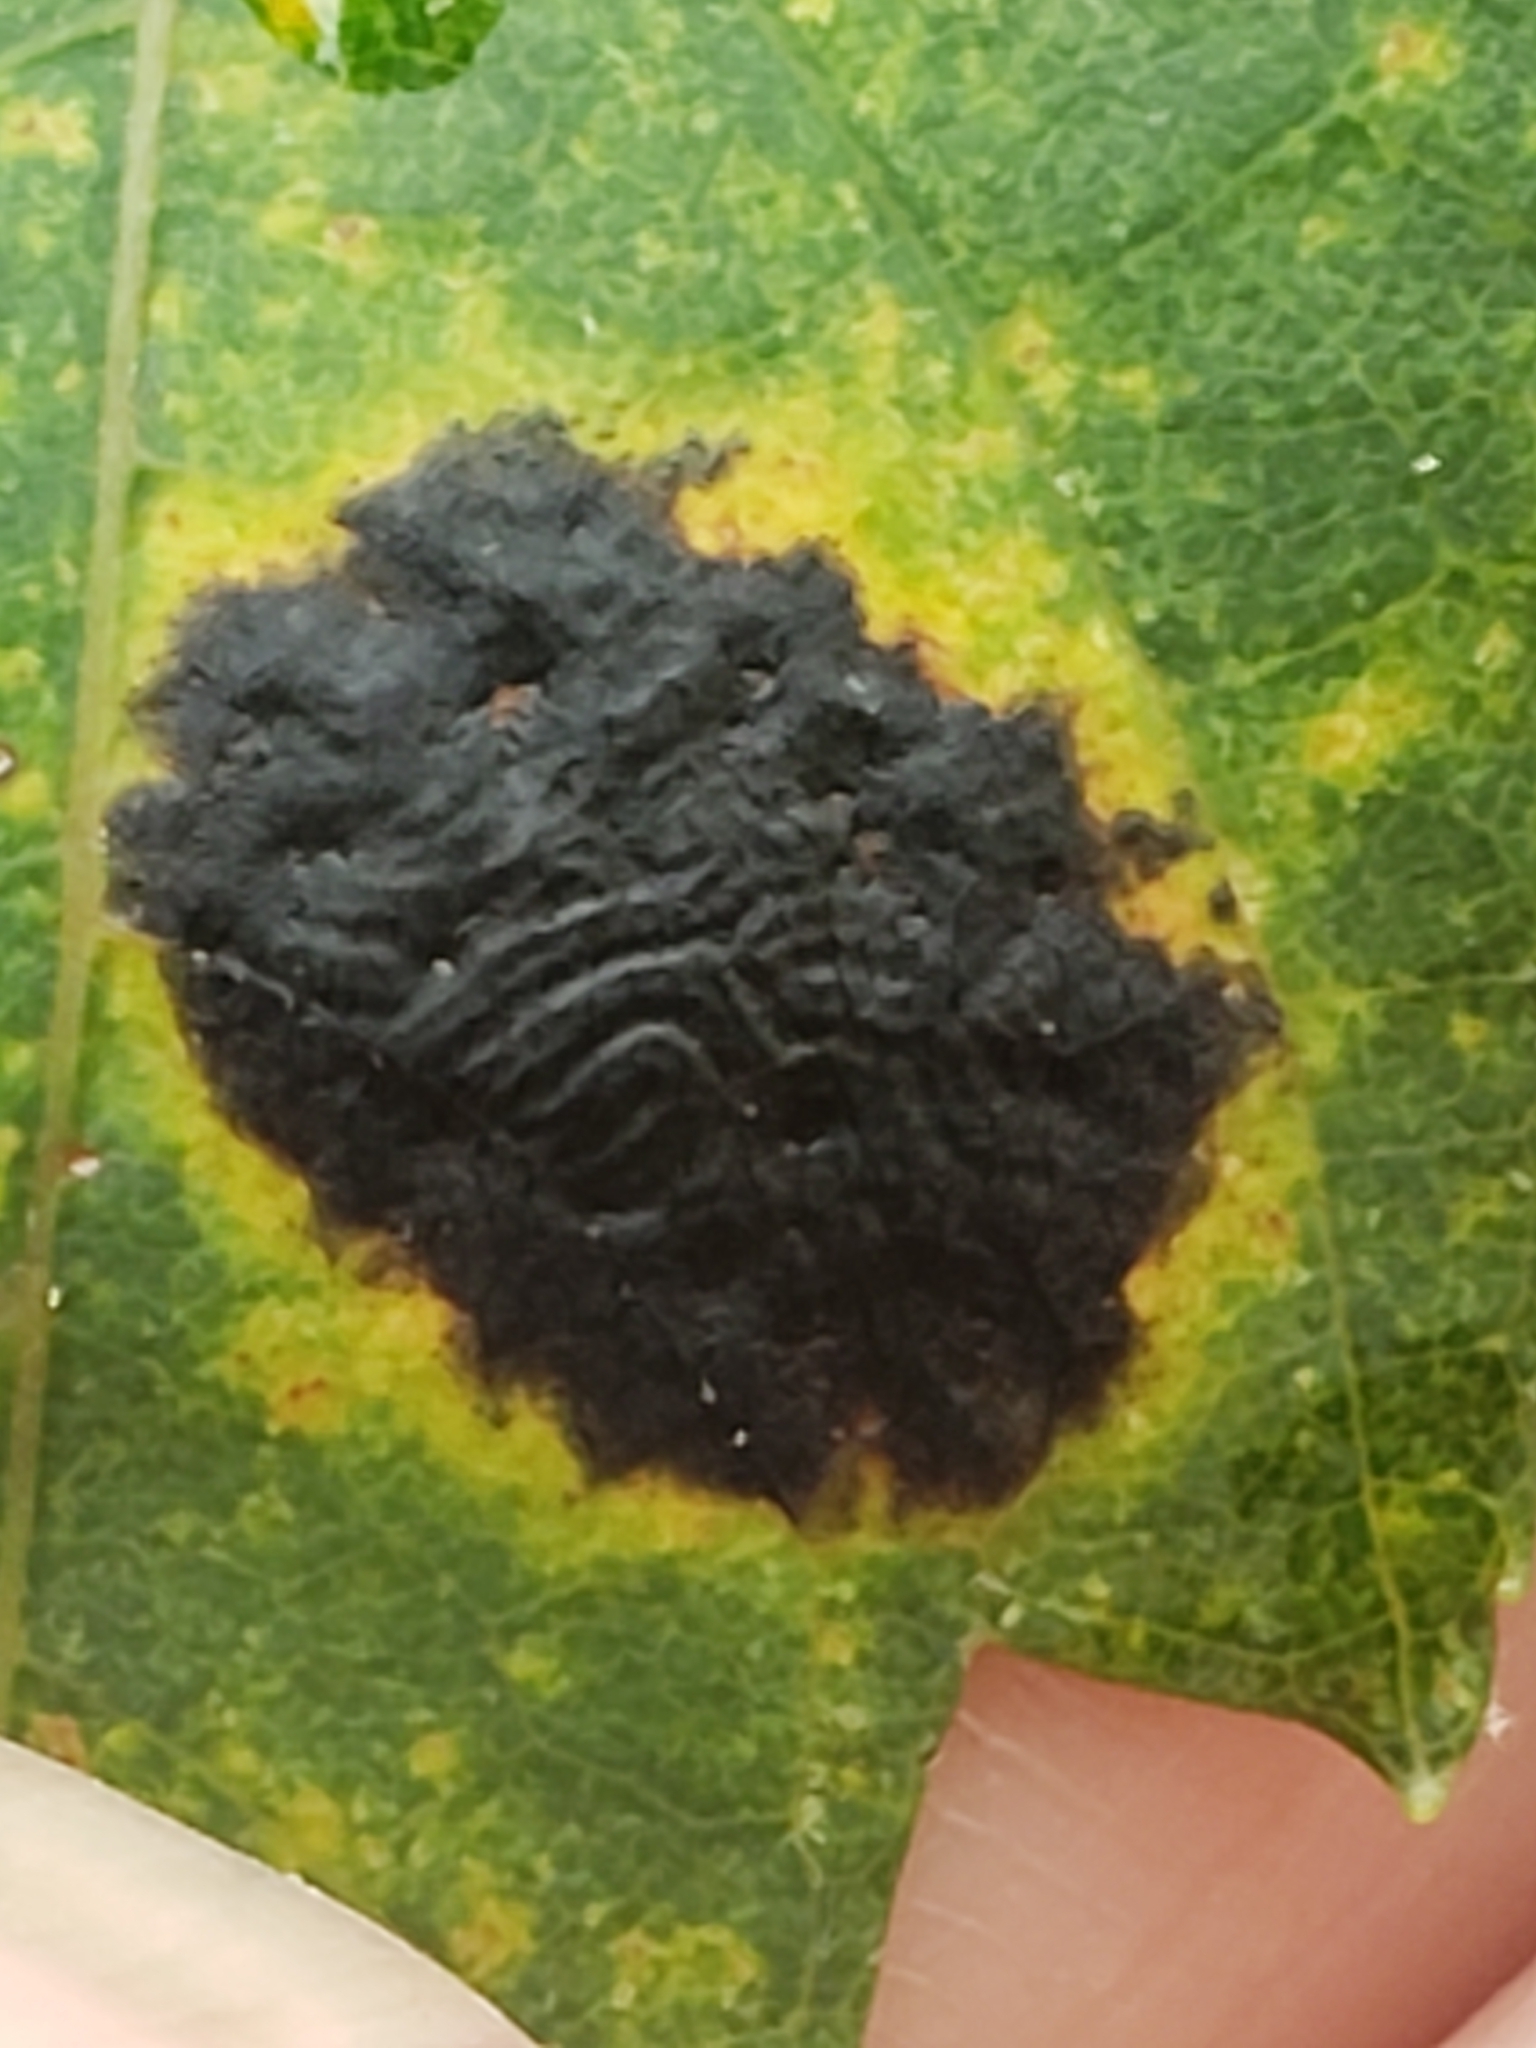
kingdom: Fungi
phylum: Ascomycota
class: Leotiomycetes
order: Rhytismatales
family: Rhytismataceae
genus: Rhytisma
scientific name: Rhytisma americanum
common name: American tar spot
